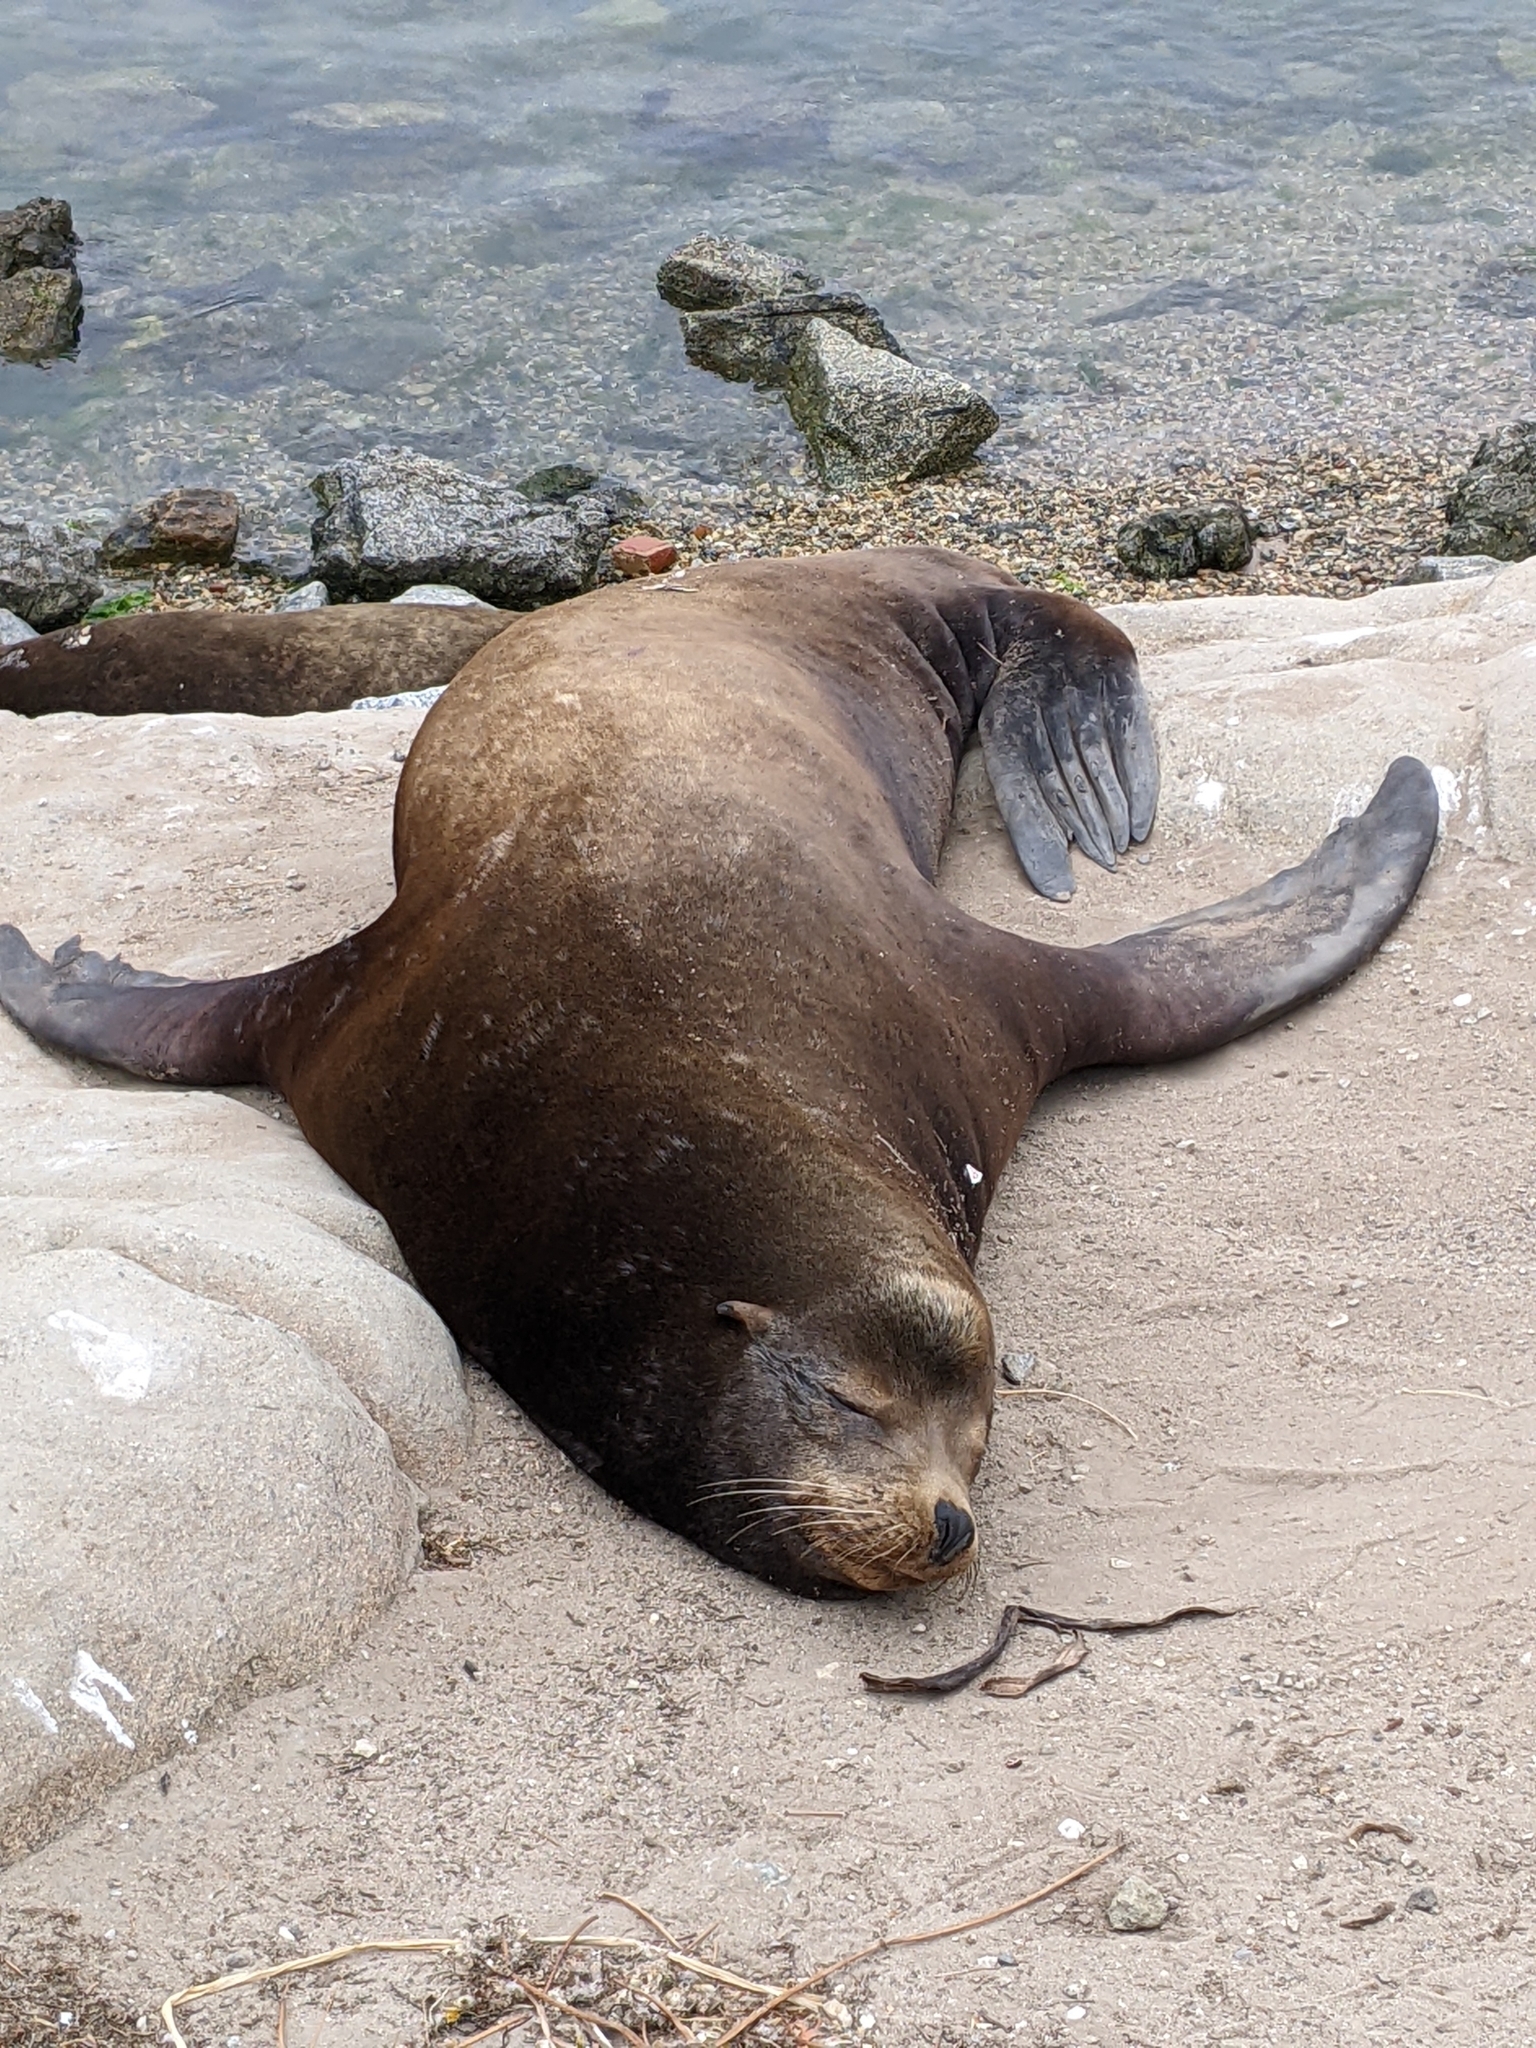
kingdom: Animalia
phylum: Chordata
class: Mammalia
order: Carnivora
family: Otariidae
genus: Zalophus
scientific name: Zalophus californianus
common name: California sea lion
